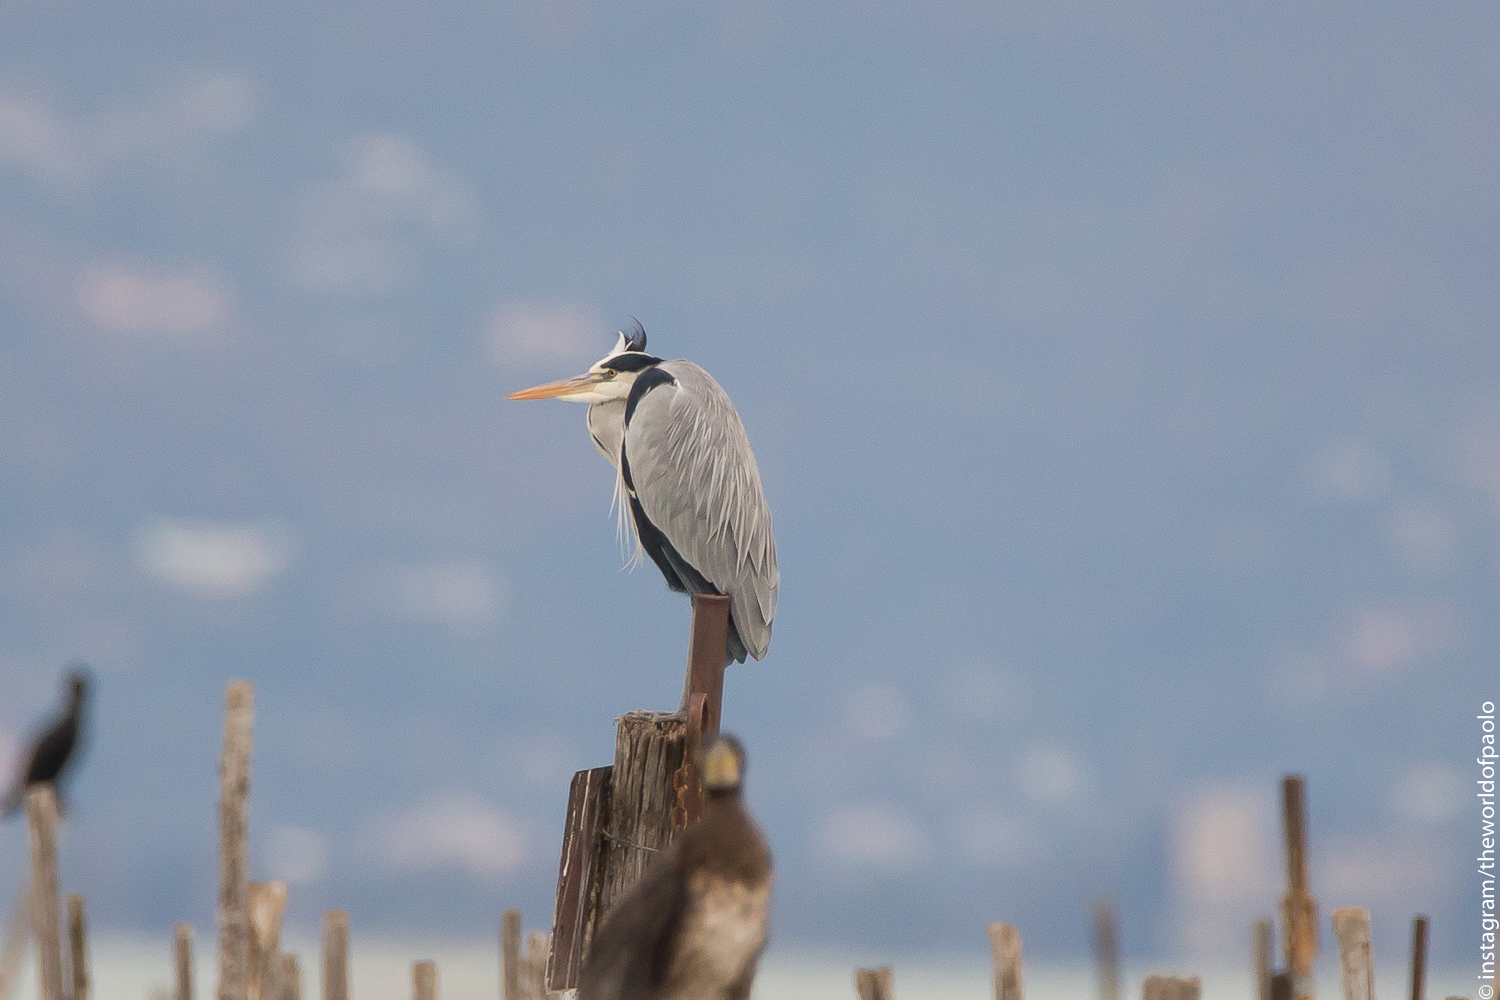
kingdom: Animalia
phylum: Chordata
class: Aves
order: Pelecaniformes
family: Ardeidae
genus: Ardea
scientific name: Ardea cinerea
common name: Grey heron
